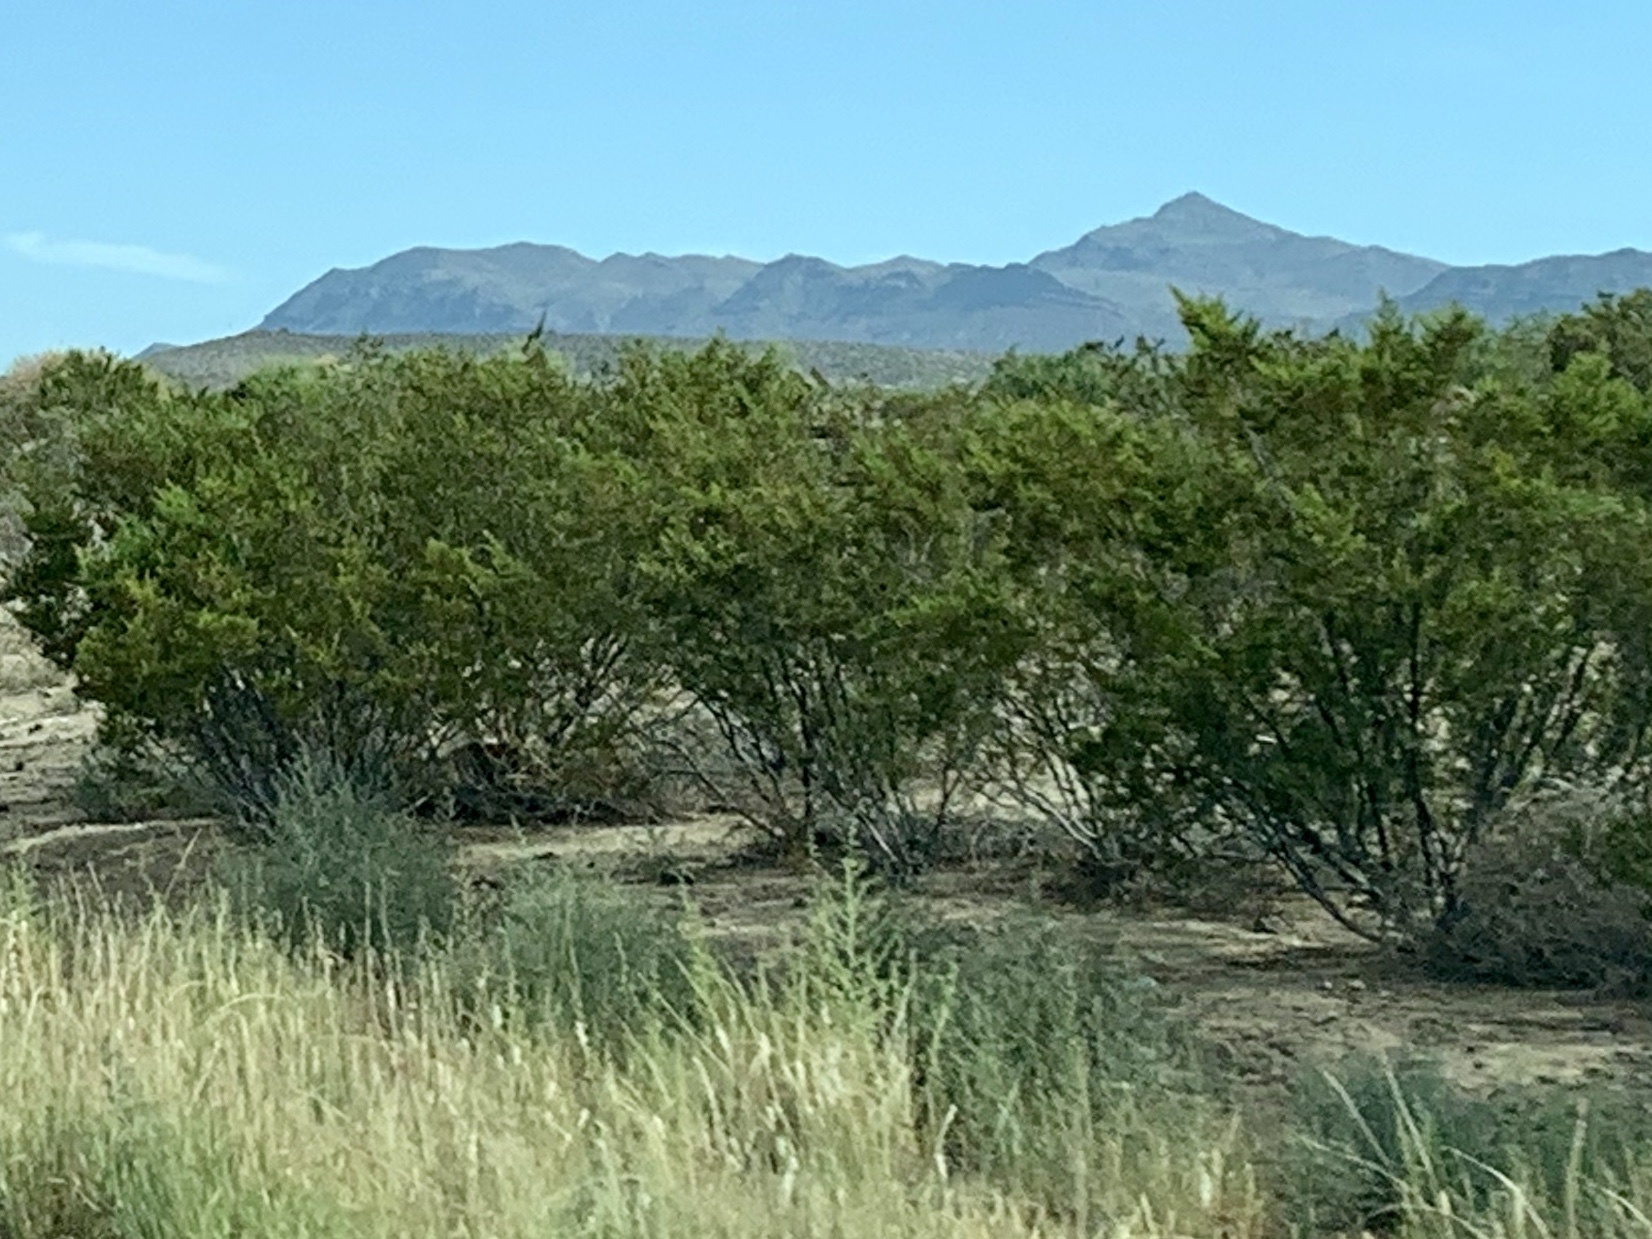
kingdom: Plantae
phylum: Tracheophyta
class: Magnoliopsida
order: Zygophyllales
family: Zygophyllaceae
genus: Larrea
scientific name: Larrea tridentata
